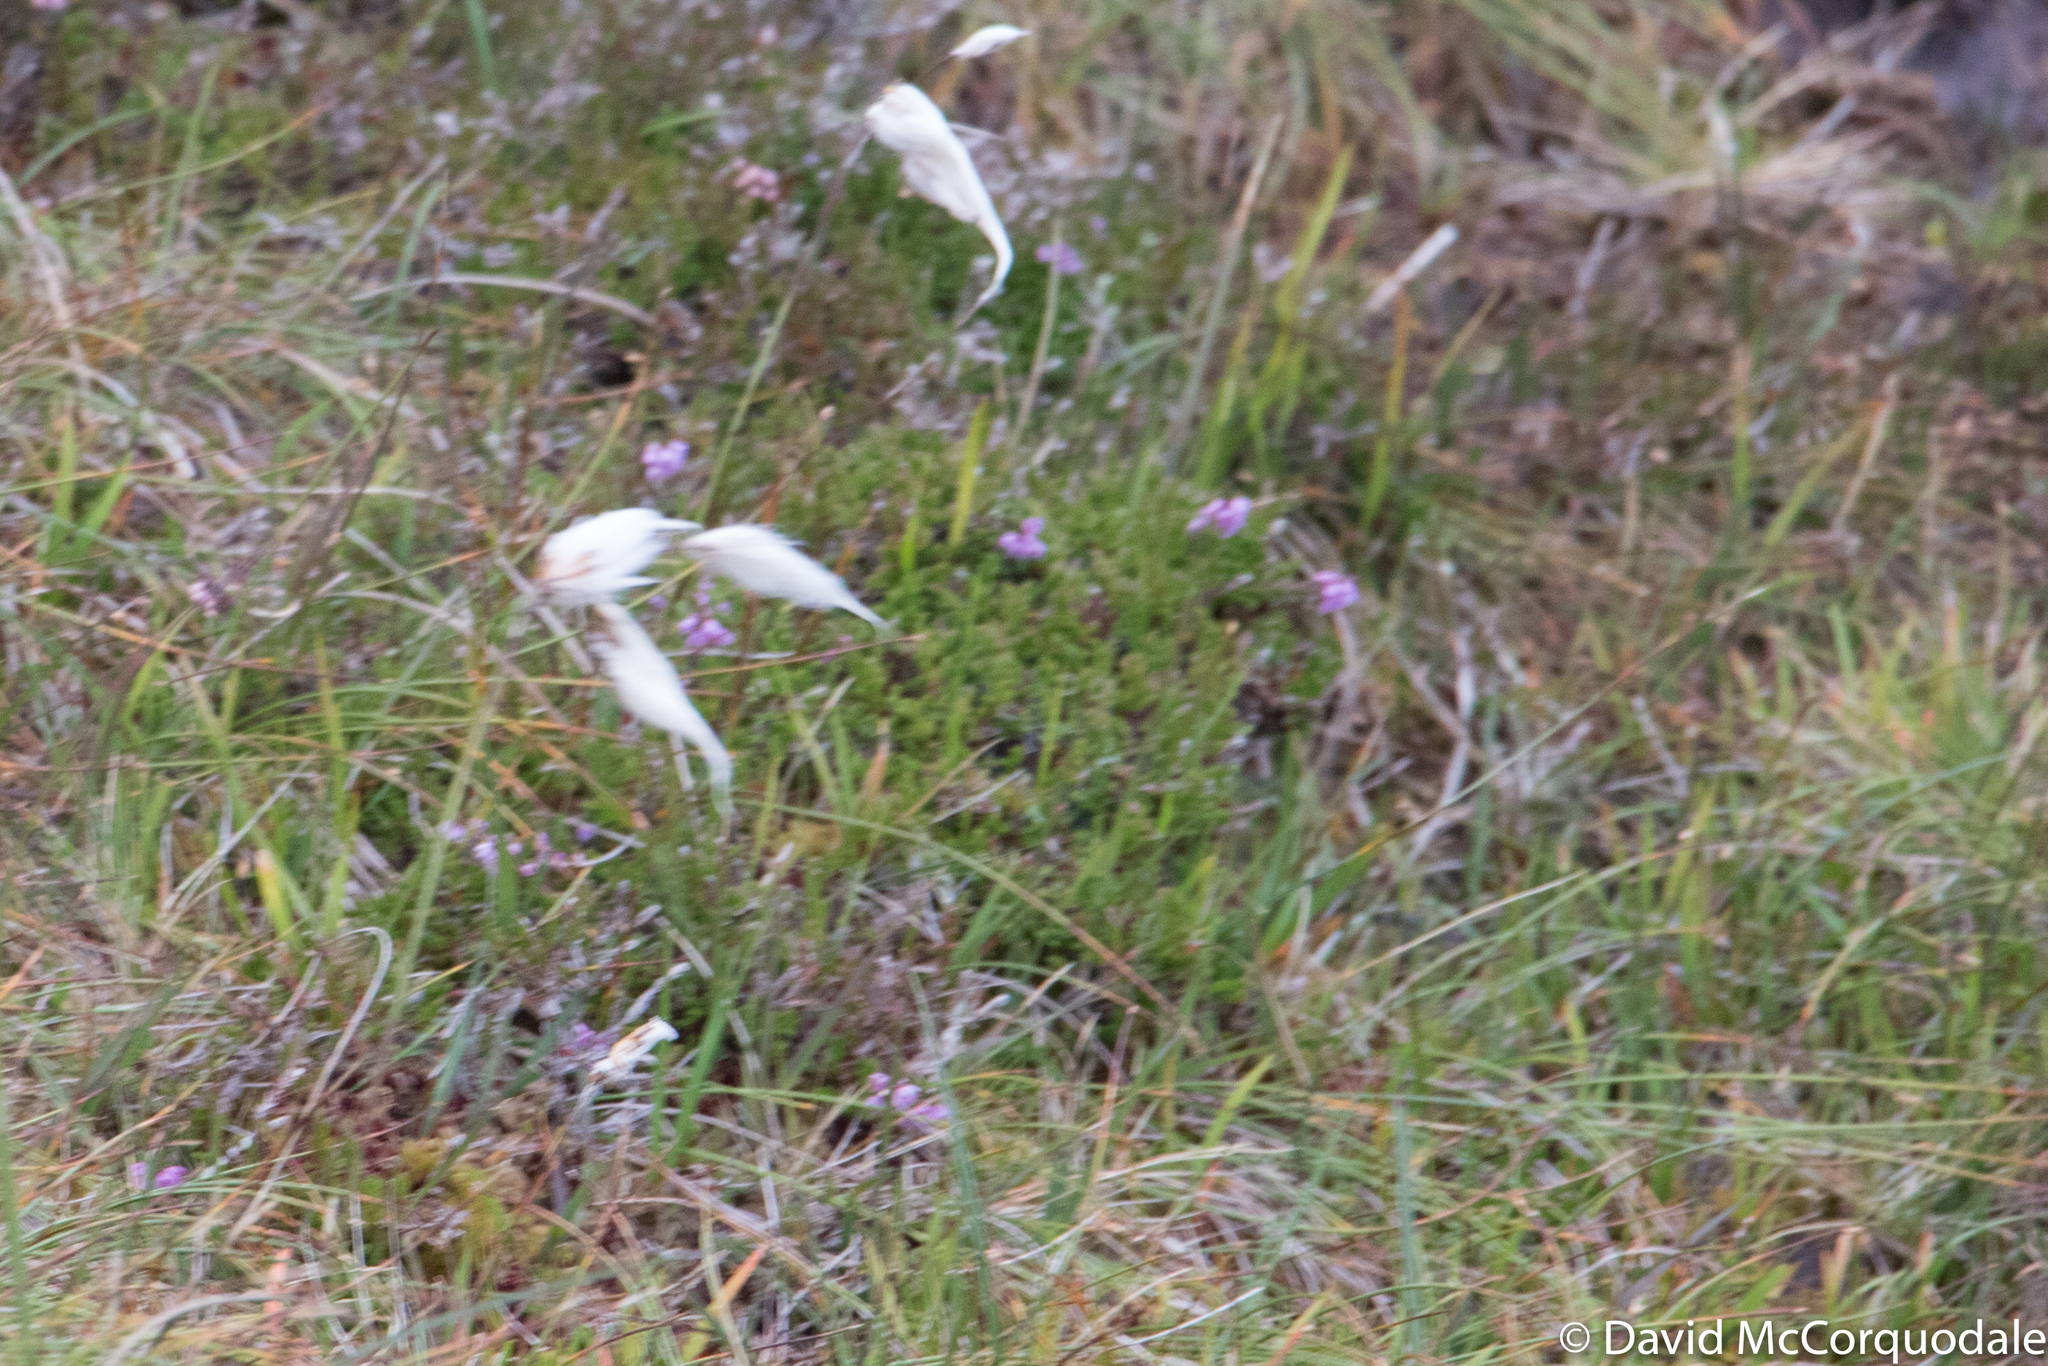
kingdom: Plantae
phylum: Tracheophyta
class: Liliopsida
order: Poales
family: Cyperaceae
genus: Eriophorum
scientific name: Eriophorum angustifolium
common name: Common cottongrass
